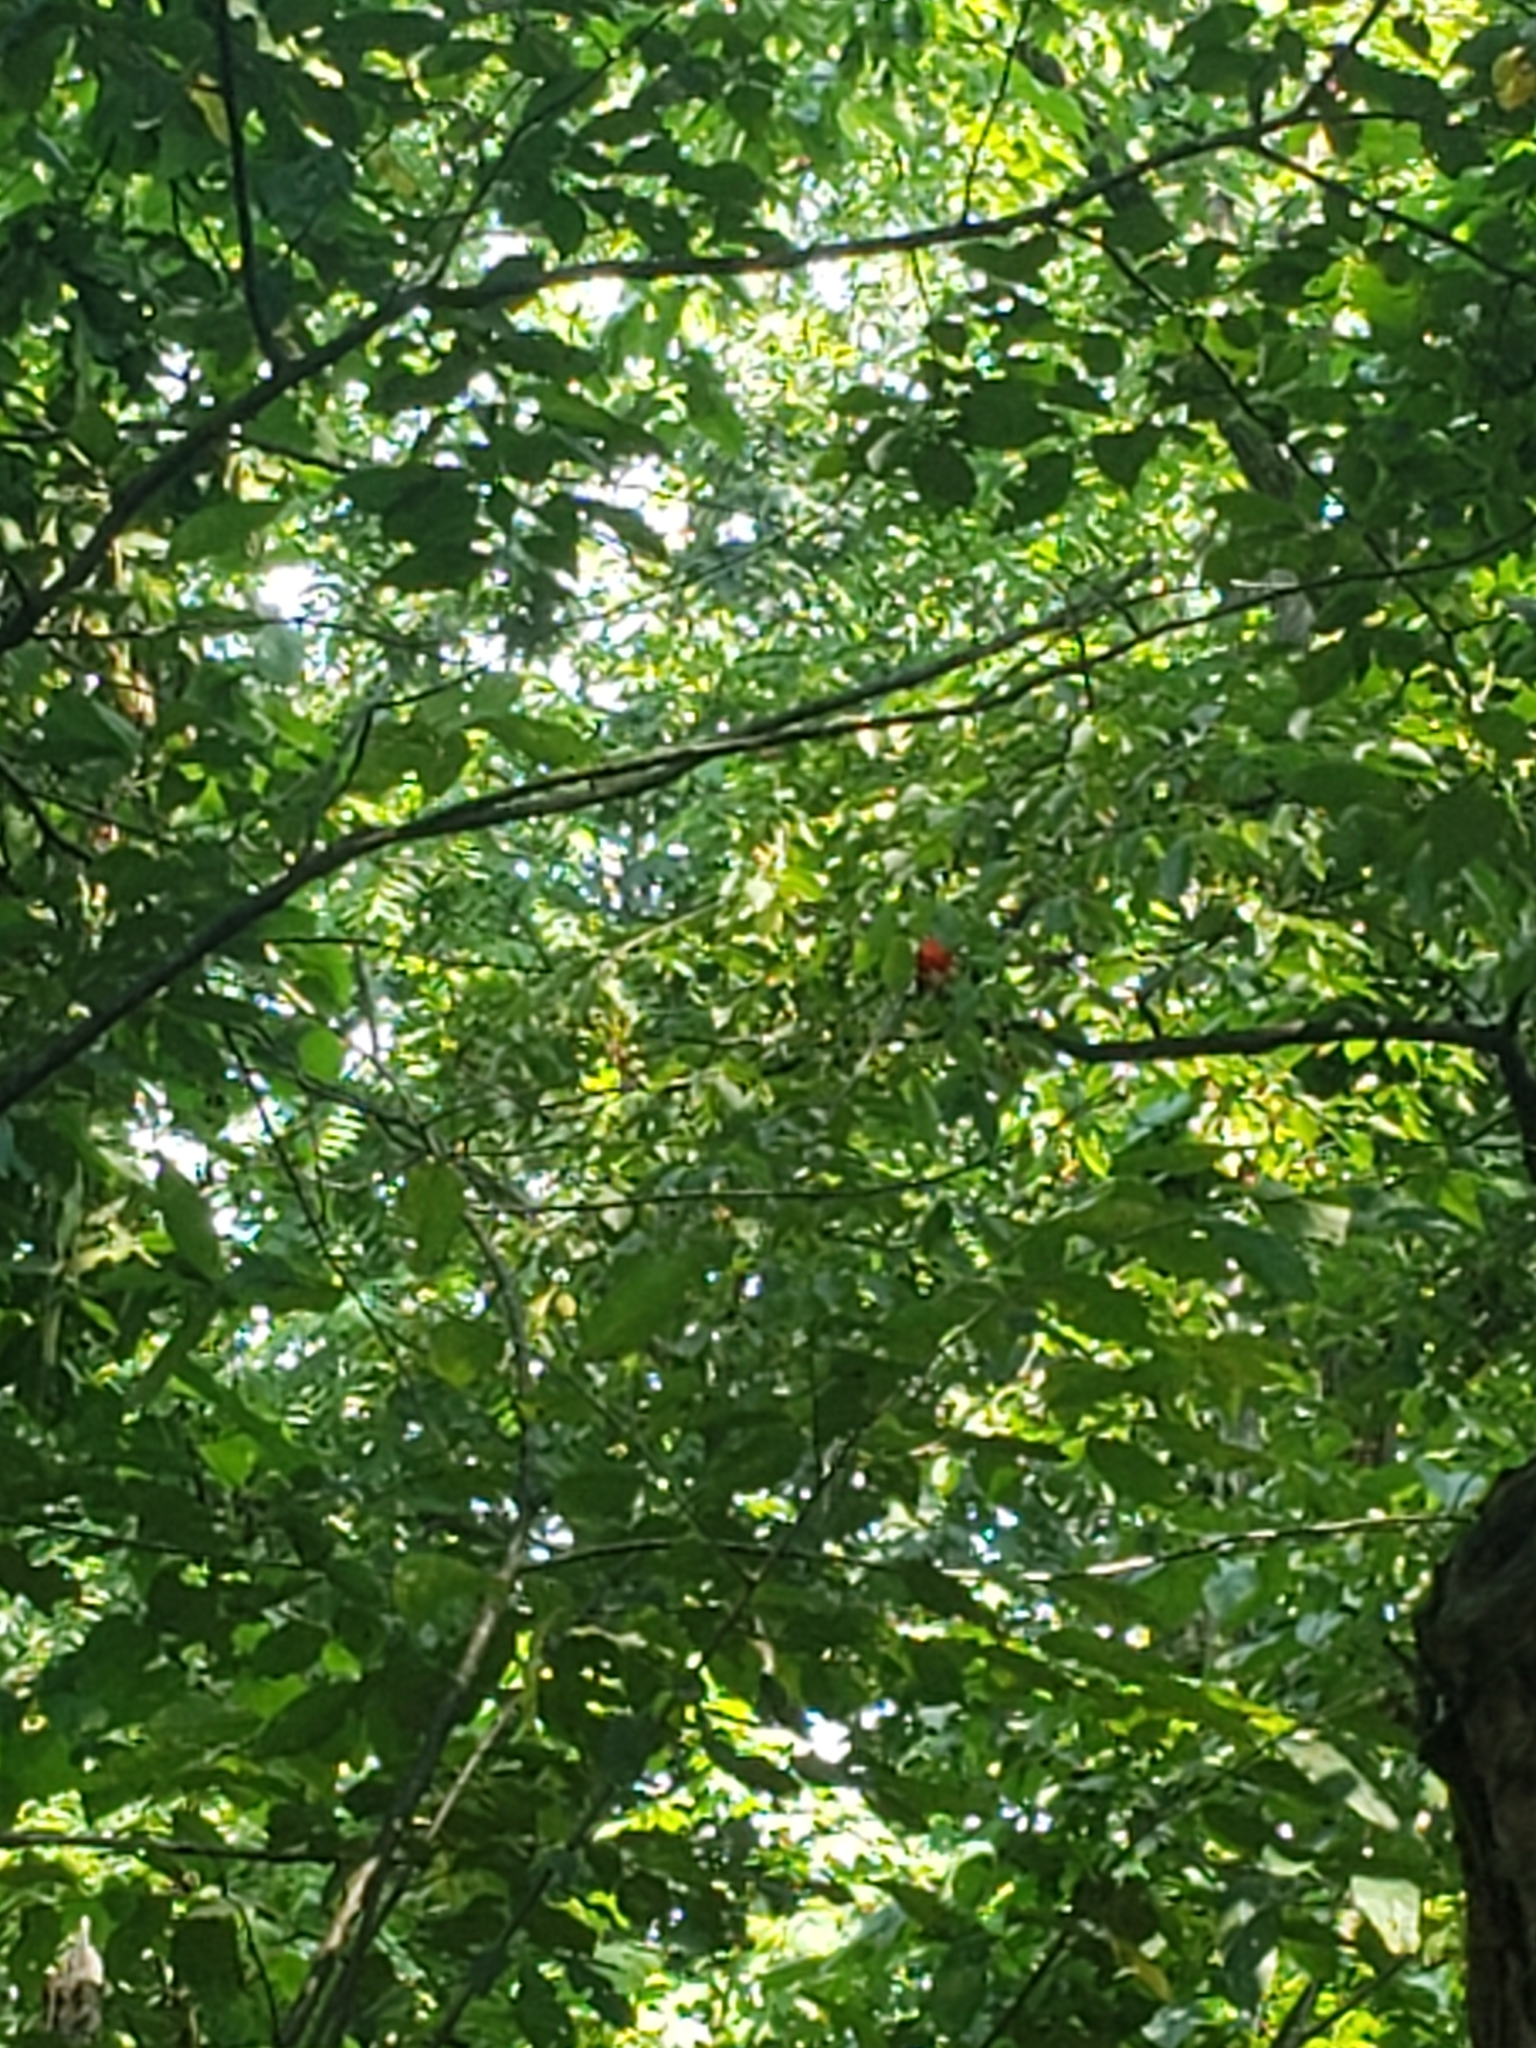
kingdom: Animalia
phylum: Chordata
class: Aves
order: Passeriformes
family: Cardinalidae
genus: Piranga
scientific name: Piranga olivacea
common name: Scarlet tanager
